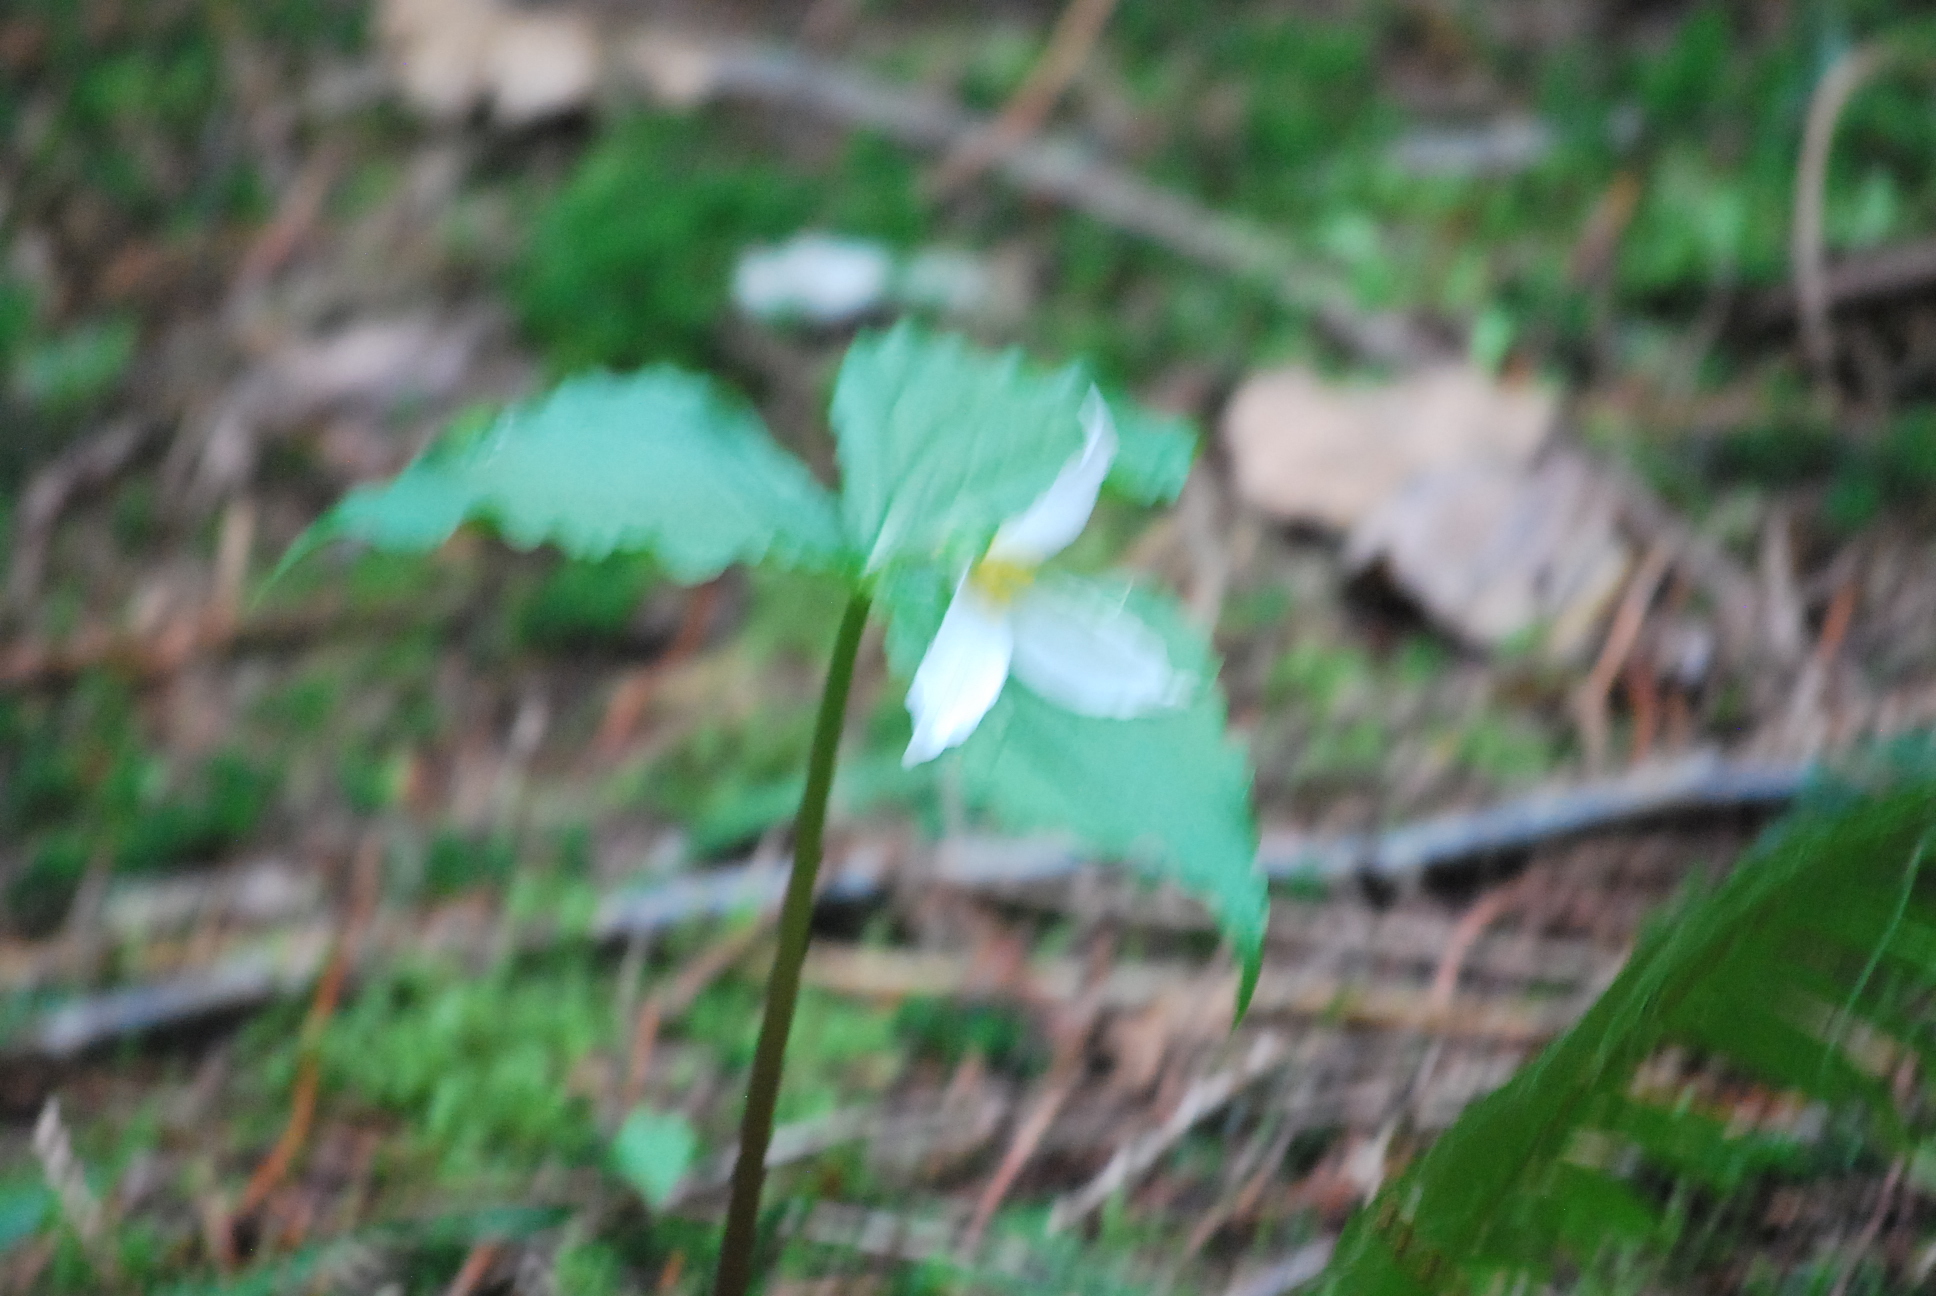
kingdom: Plantae
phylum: Tracheophyta
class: Liliopsida
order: Liliales
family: Melanthiaceae
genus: Trillium
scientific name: Trillium ovatum
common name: Pacific trillium
